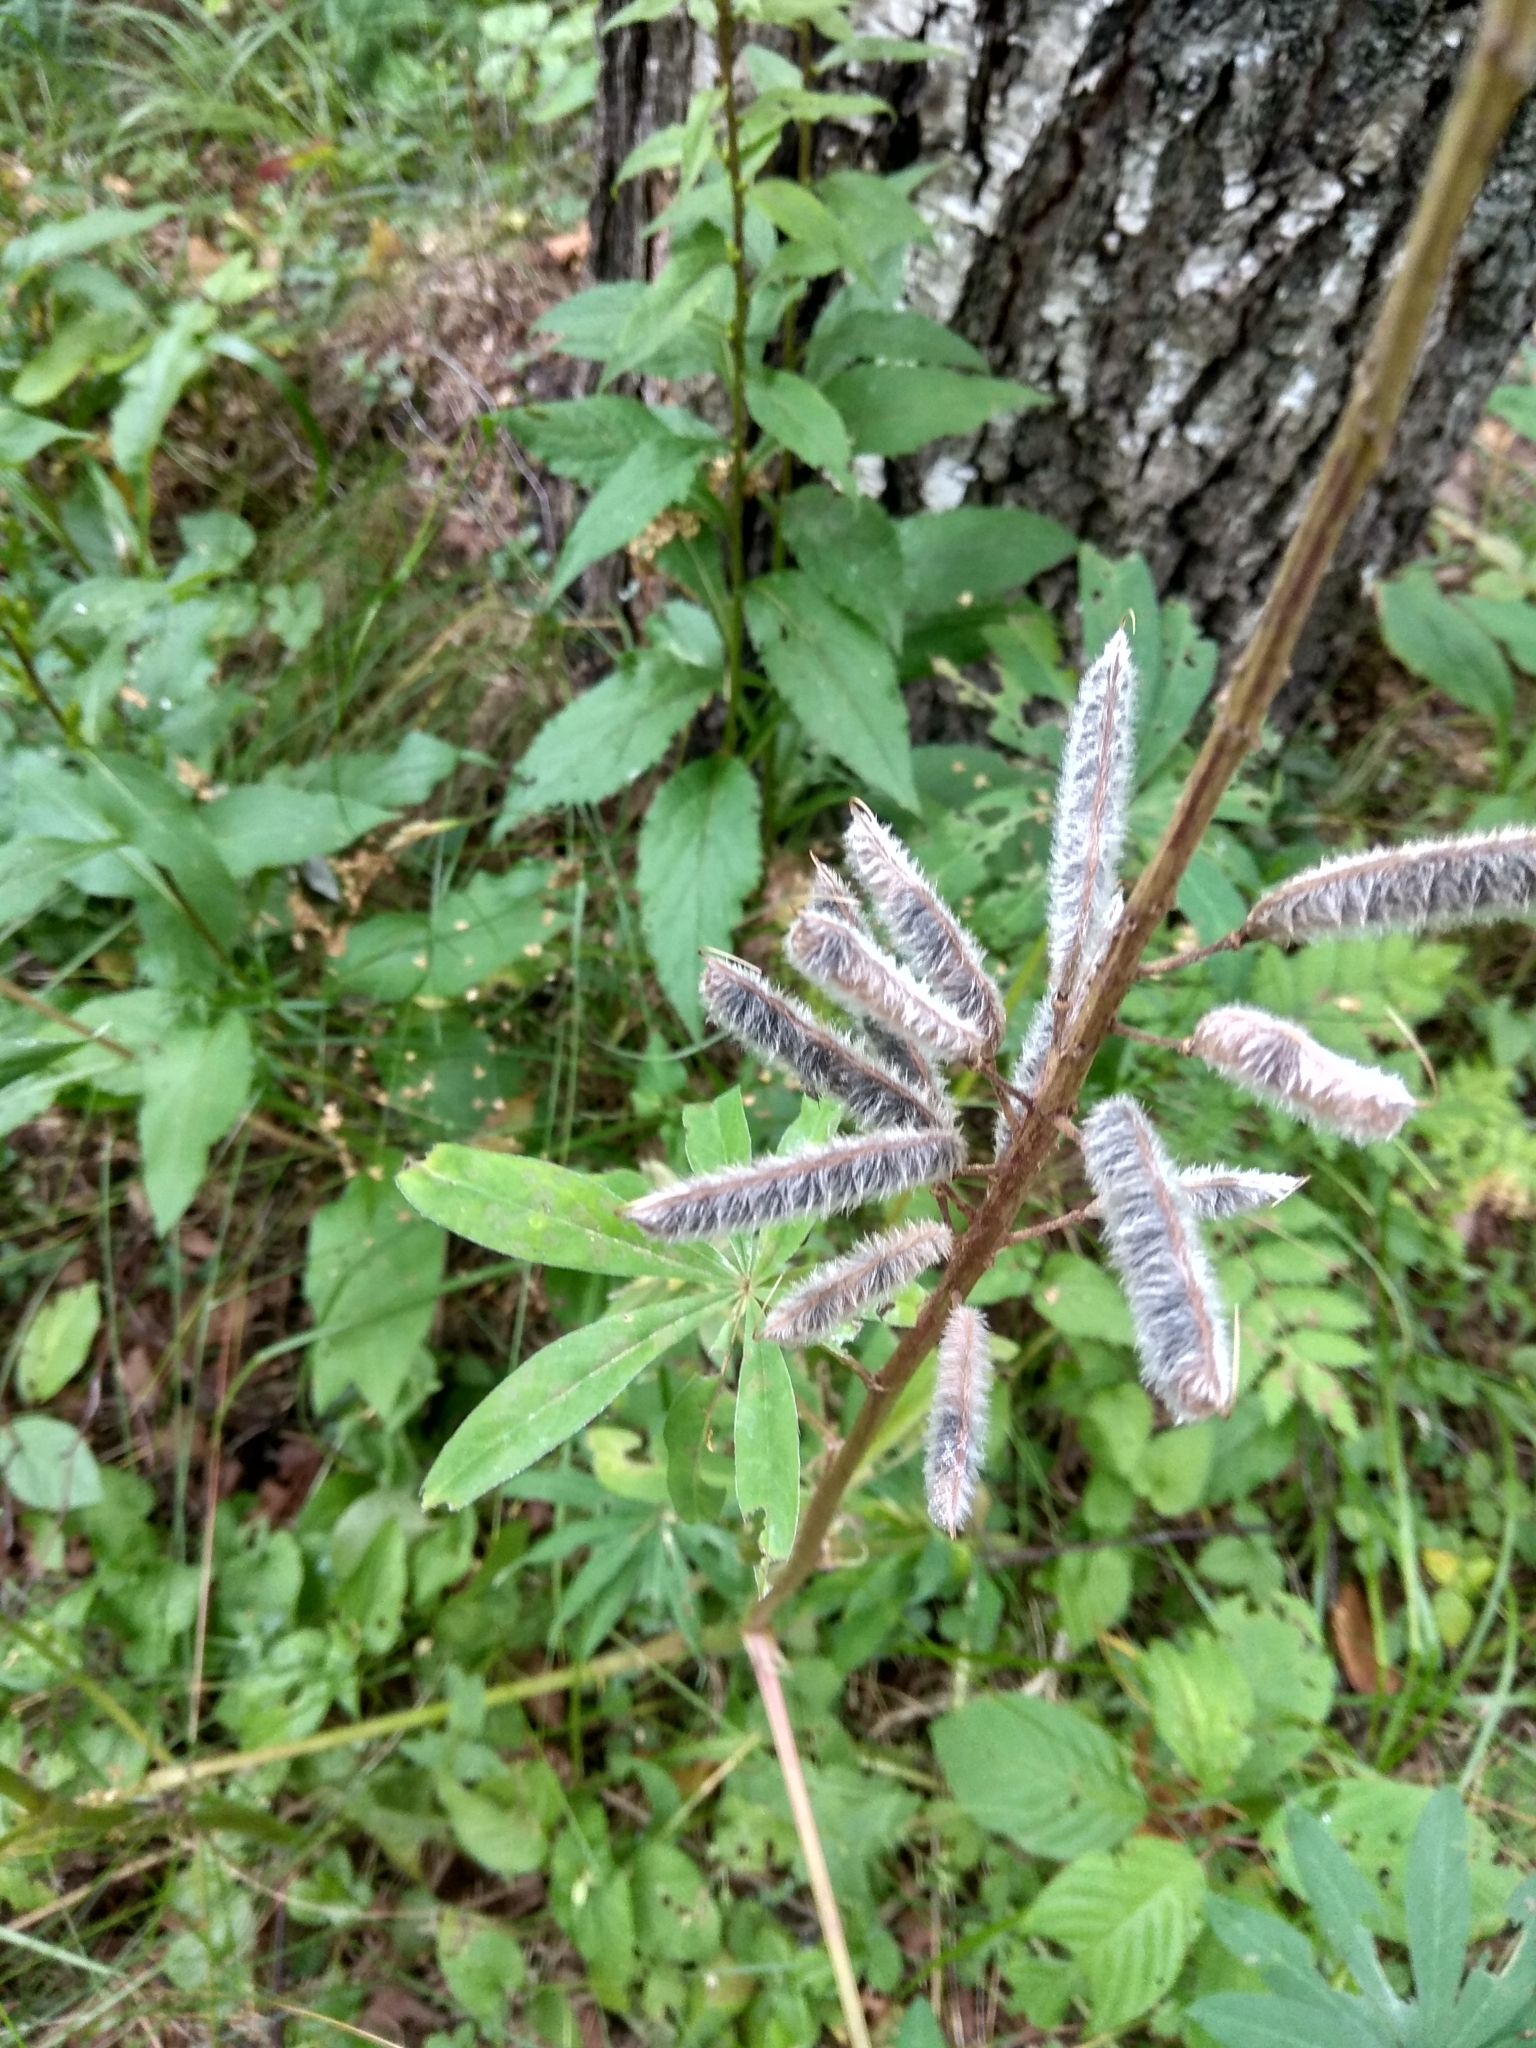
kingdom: Plantae
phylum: Tracheophyta
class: Magnoliopsida
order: Fabales
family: Fabaceae
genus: Lupinus
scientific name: Lupinus polyphyllus
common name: Garden lupin
